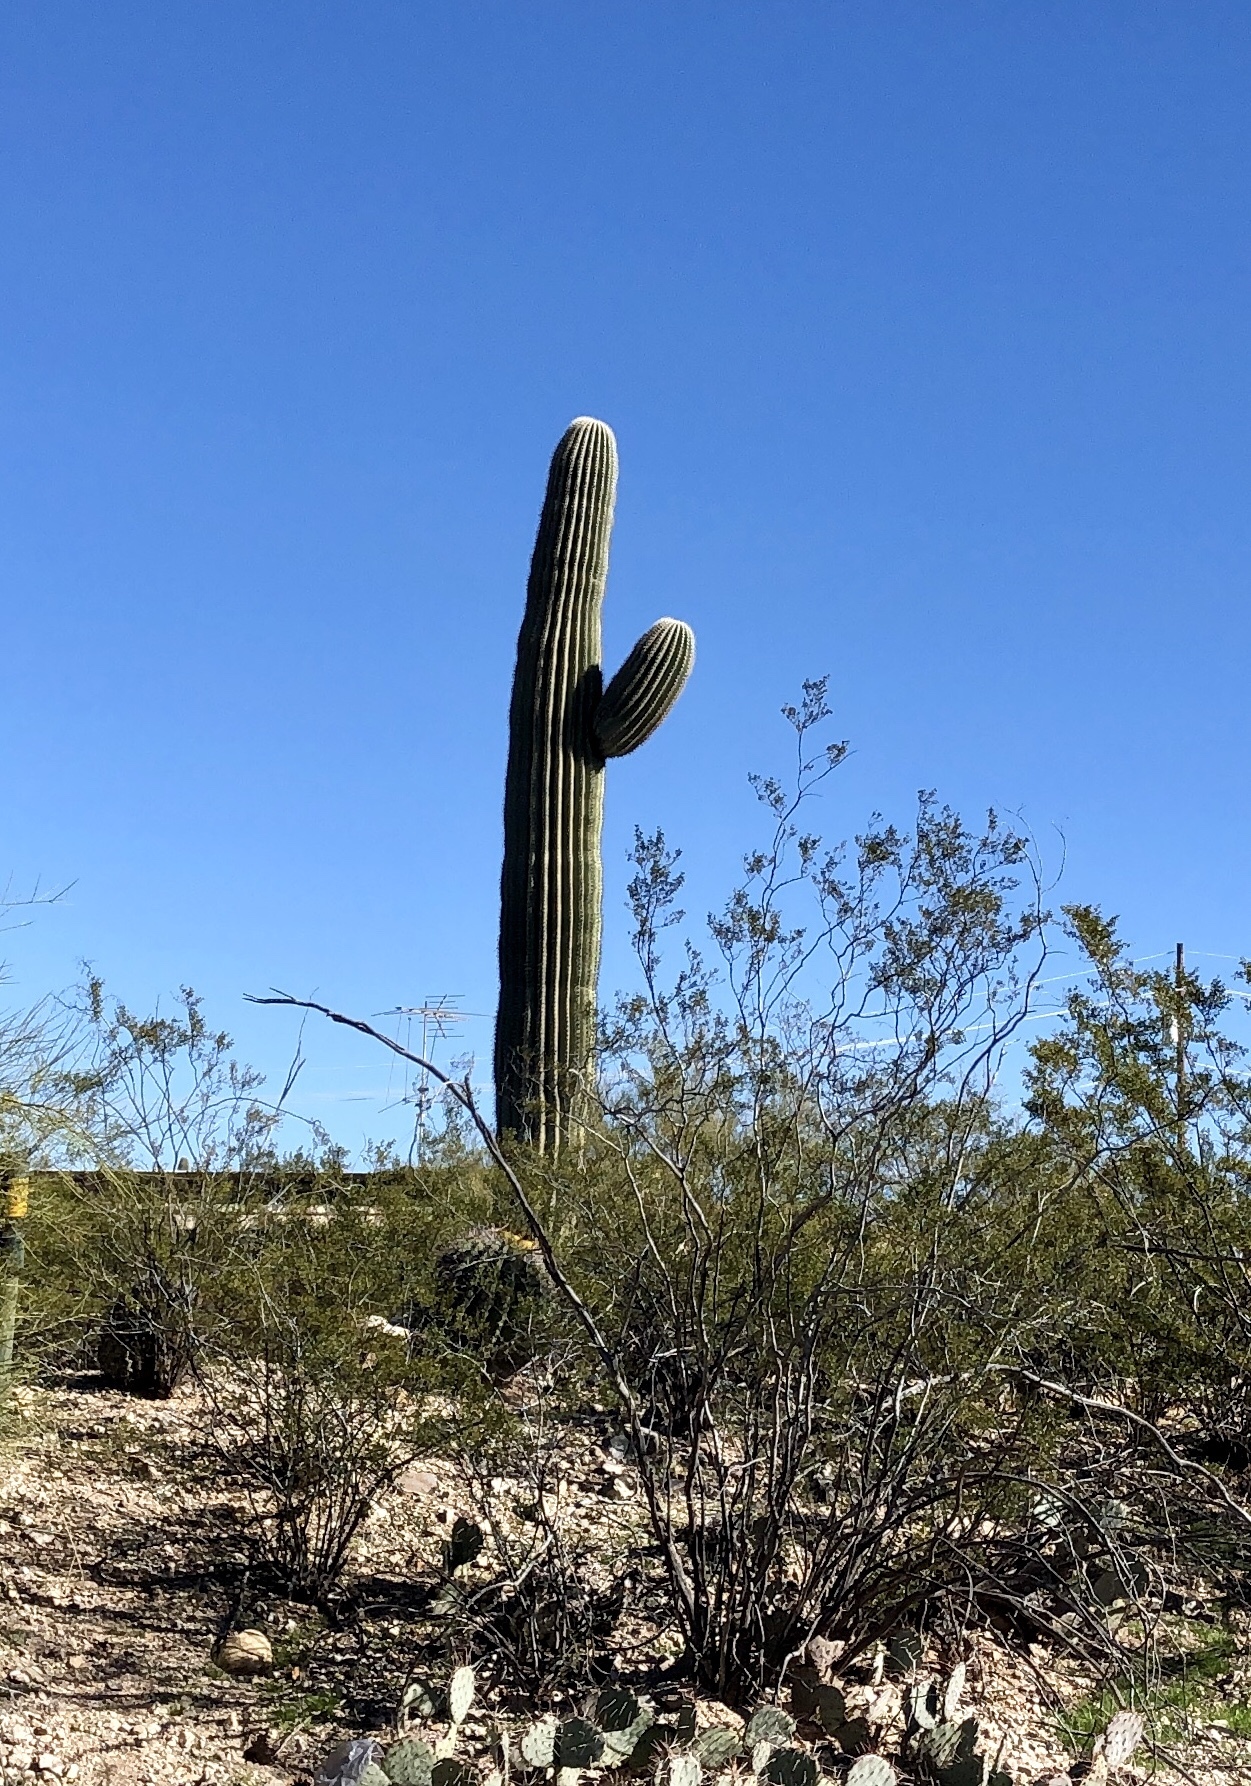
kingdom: Plantae
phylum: Tracheophyta
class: Magnoliopsida
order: Caryophyllales
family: Cactaceae
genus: Carnegiea
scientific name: Carnegiea gigantea
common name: Saguaro
